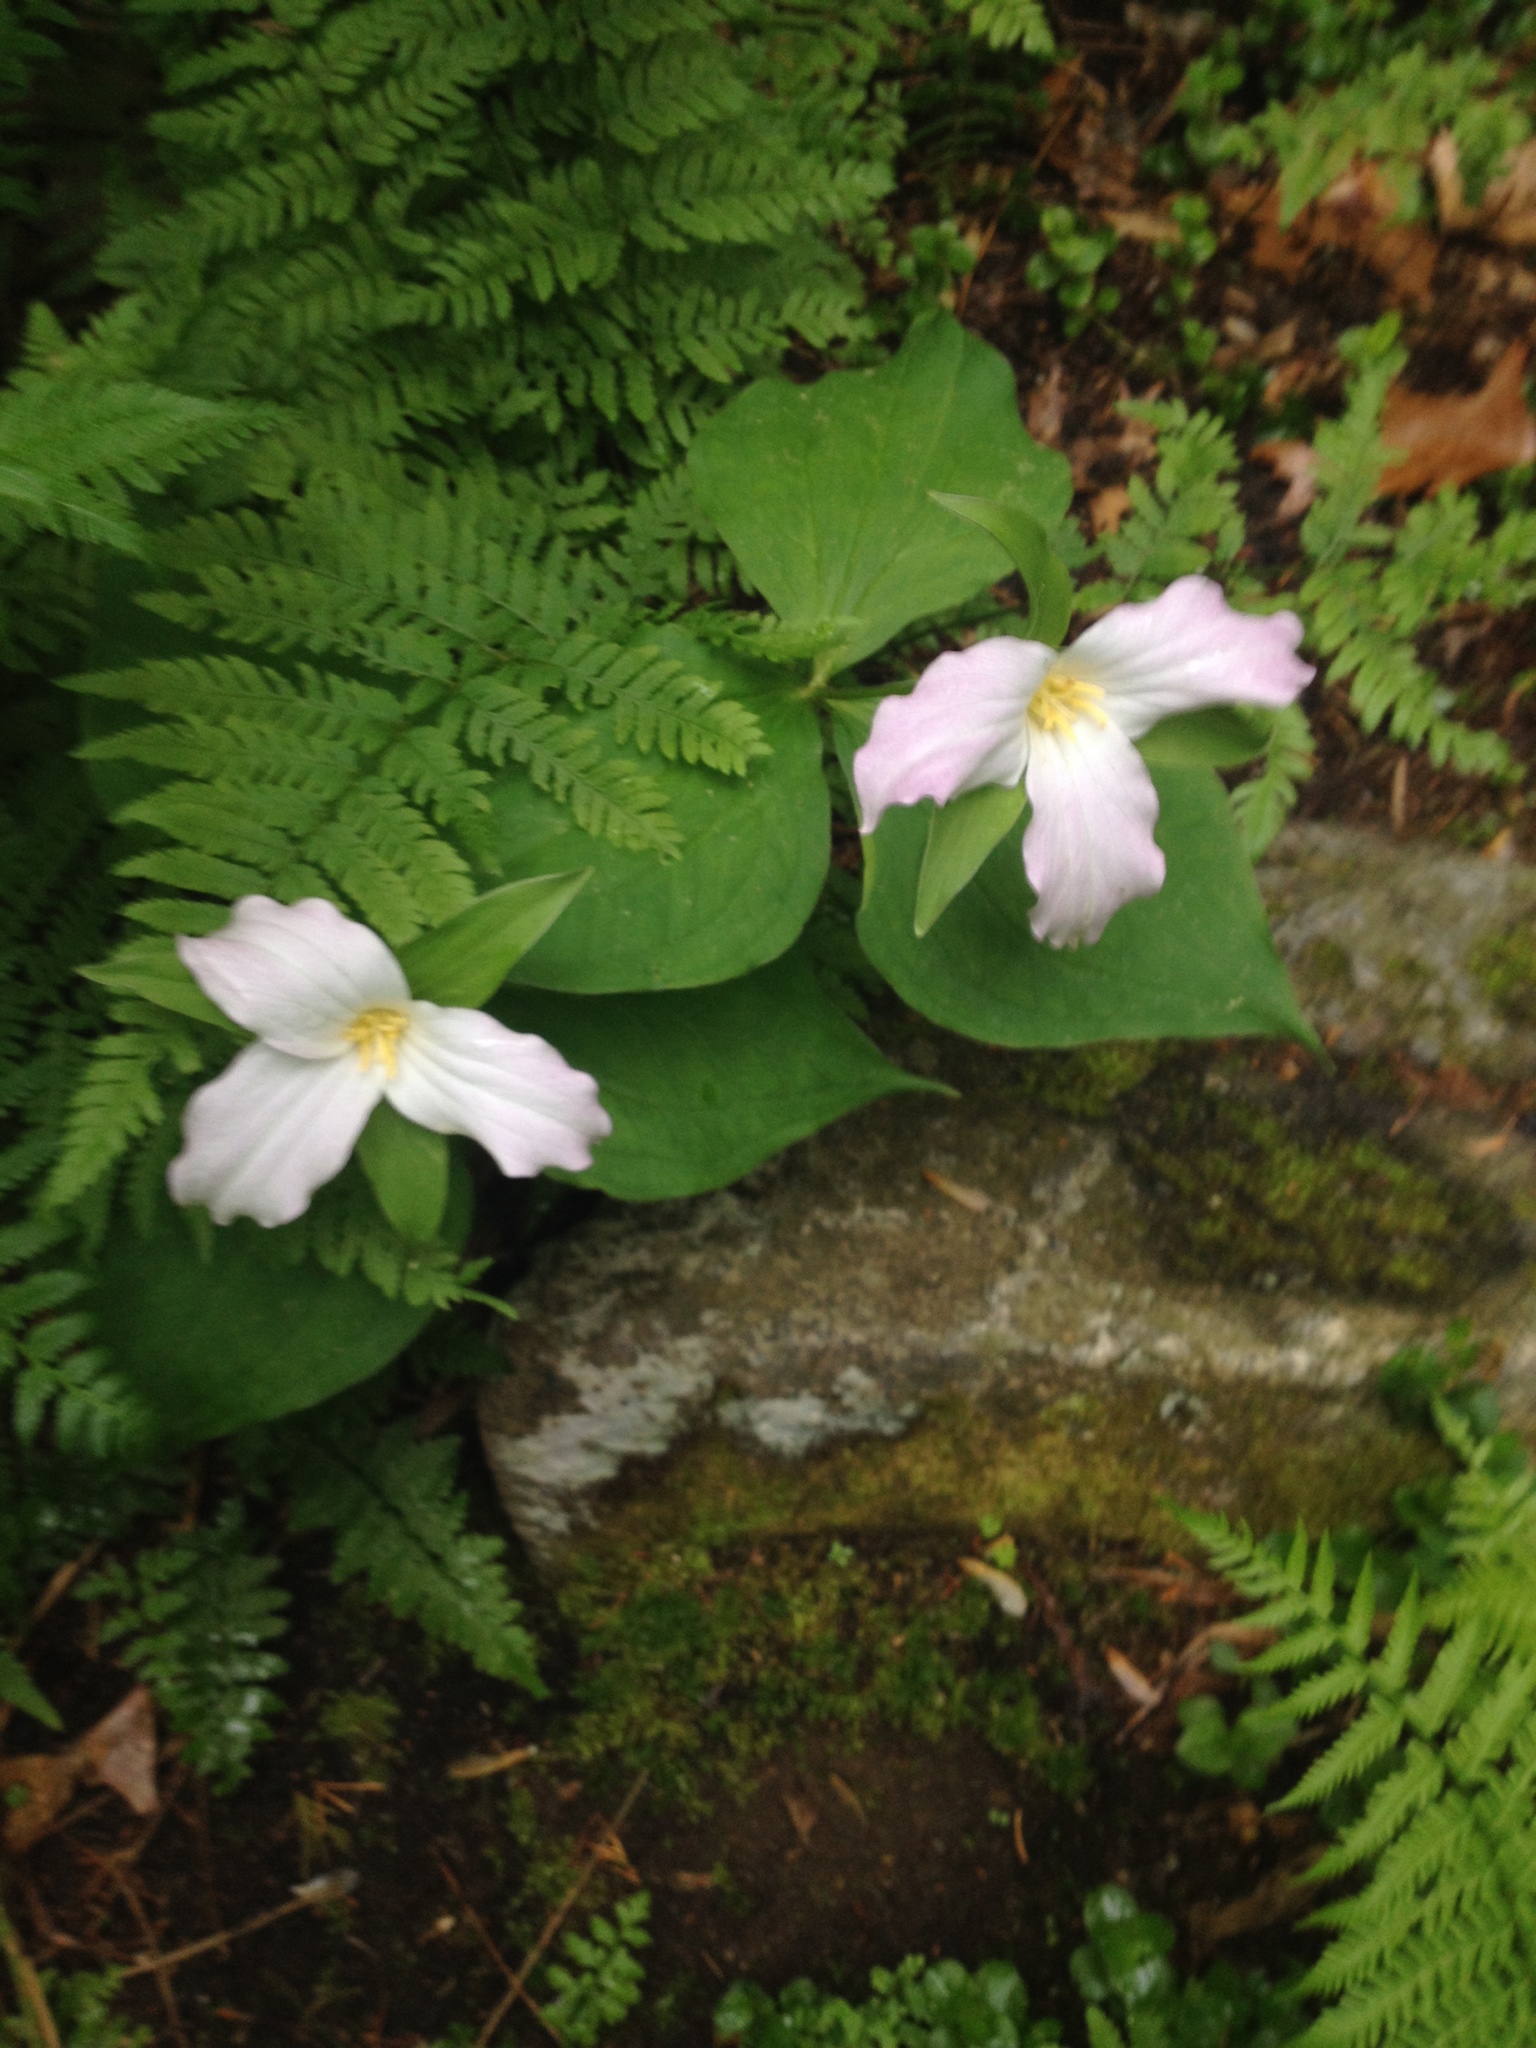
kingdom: Plantae
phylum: Tracheophyta
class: Liliopsida
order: Liliales
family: Melanthiaceae
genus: Trillium
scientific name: Trillium grandiflorum
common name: Great white trillium
